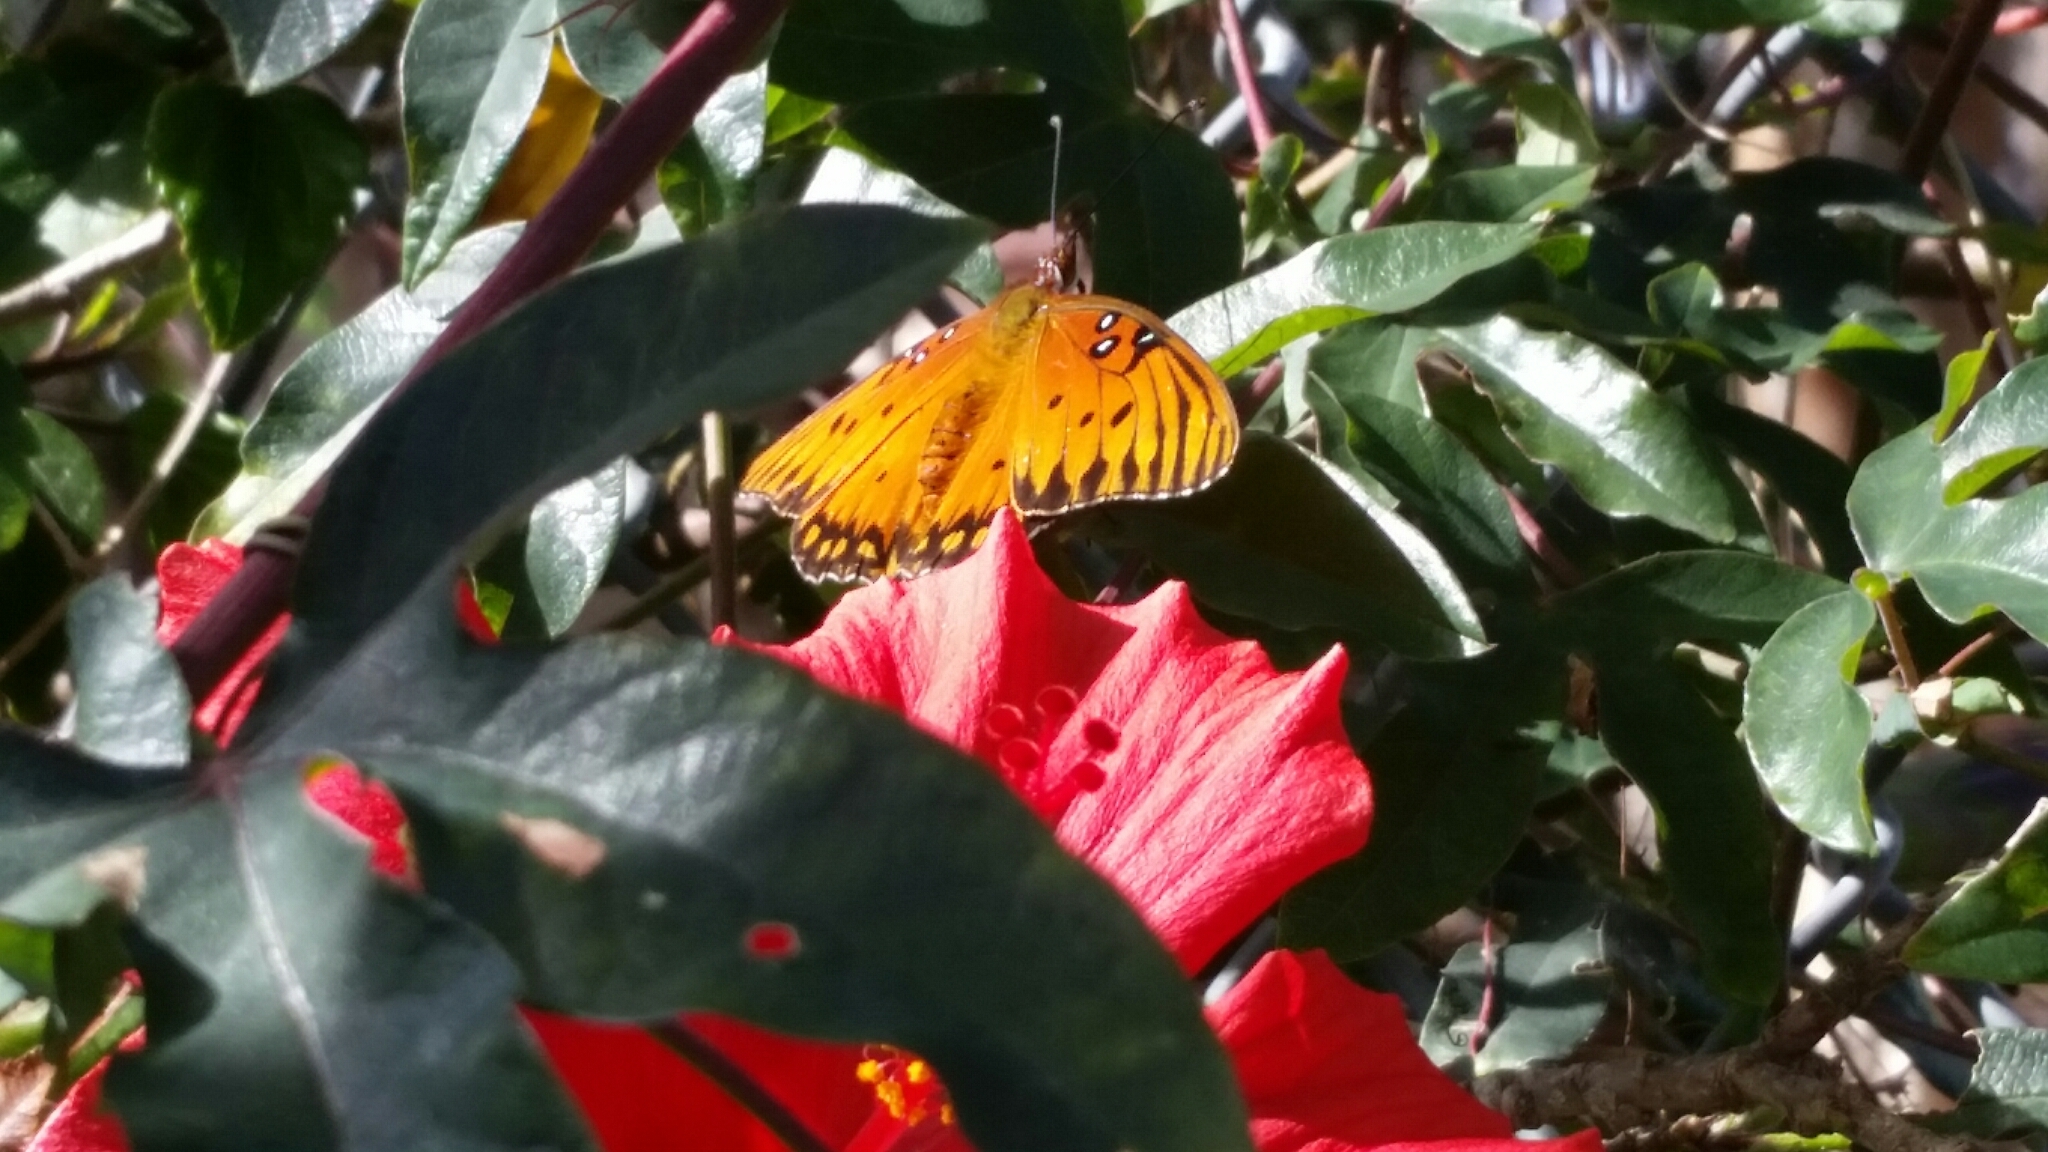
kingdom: Animalia
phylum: Arthropoda
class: Insecta
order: Lepidoptera
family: Nymphalidae
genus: Dione
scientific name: Dione vanillae
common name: Gulf fritillary
